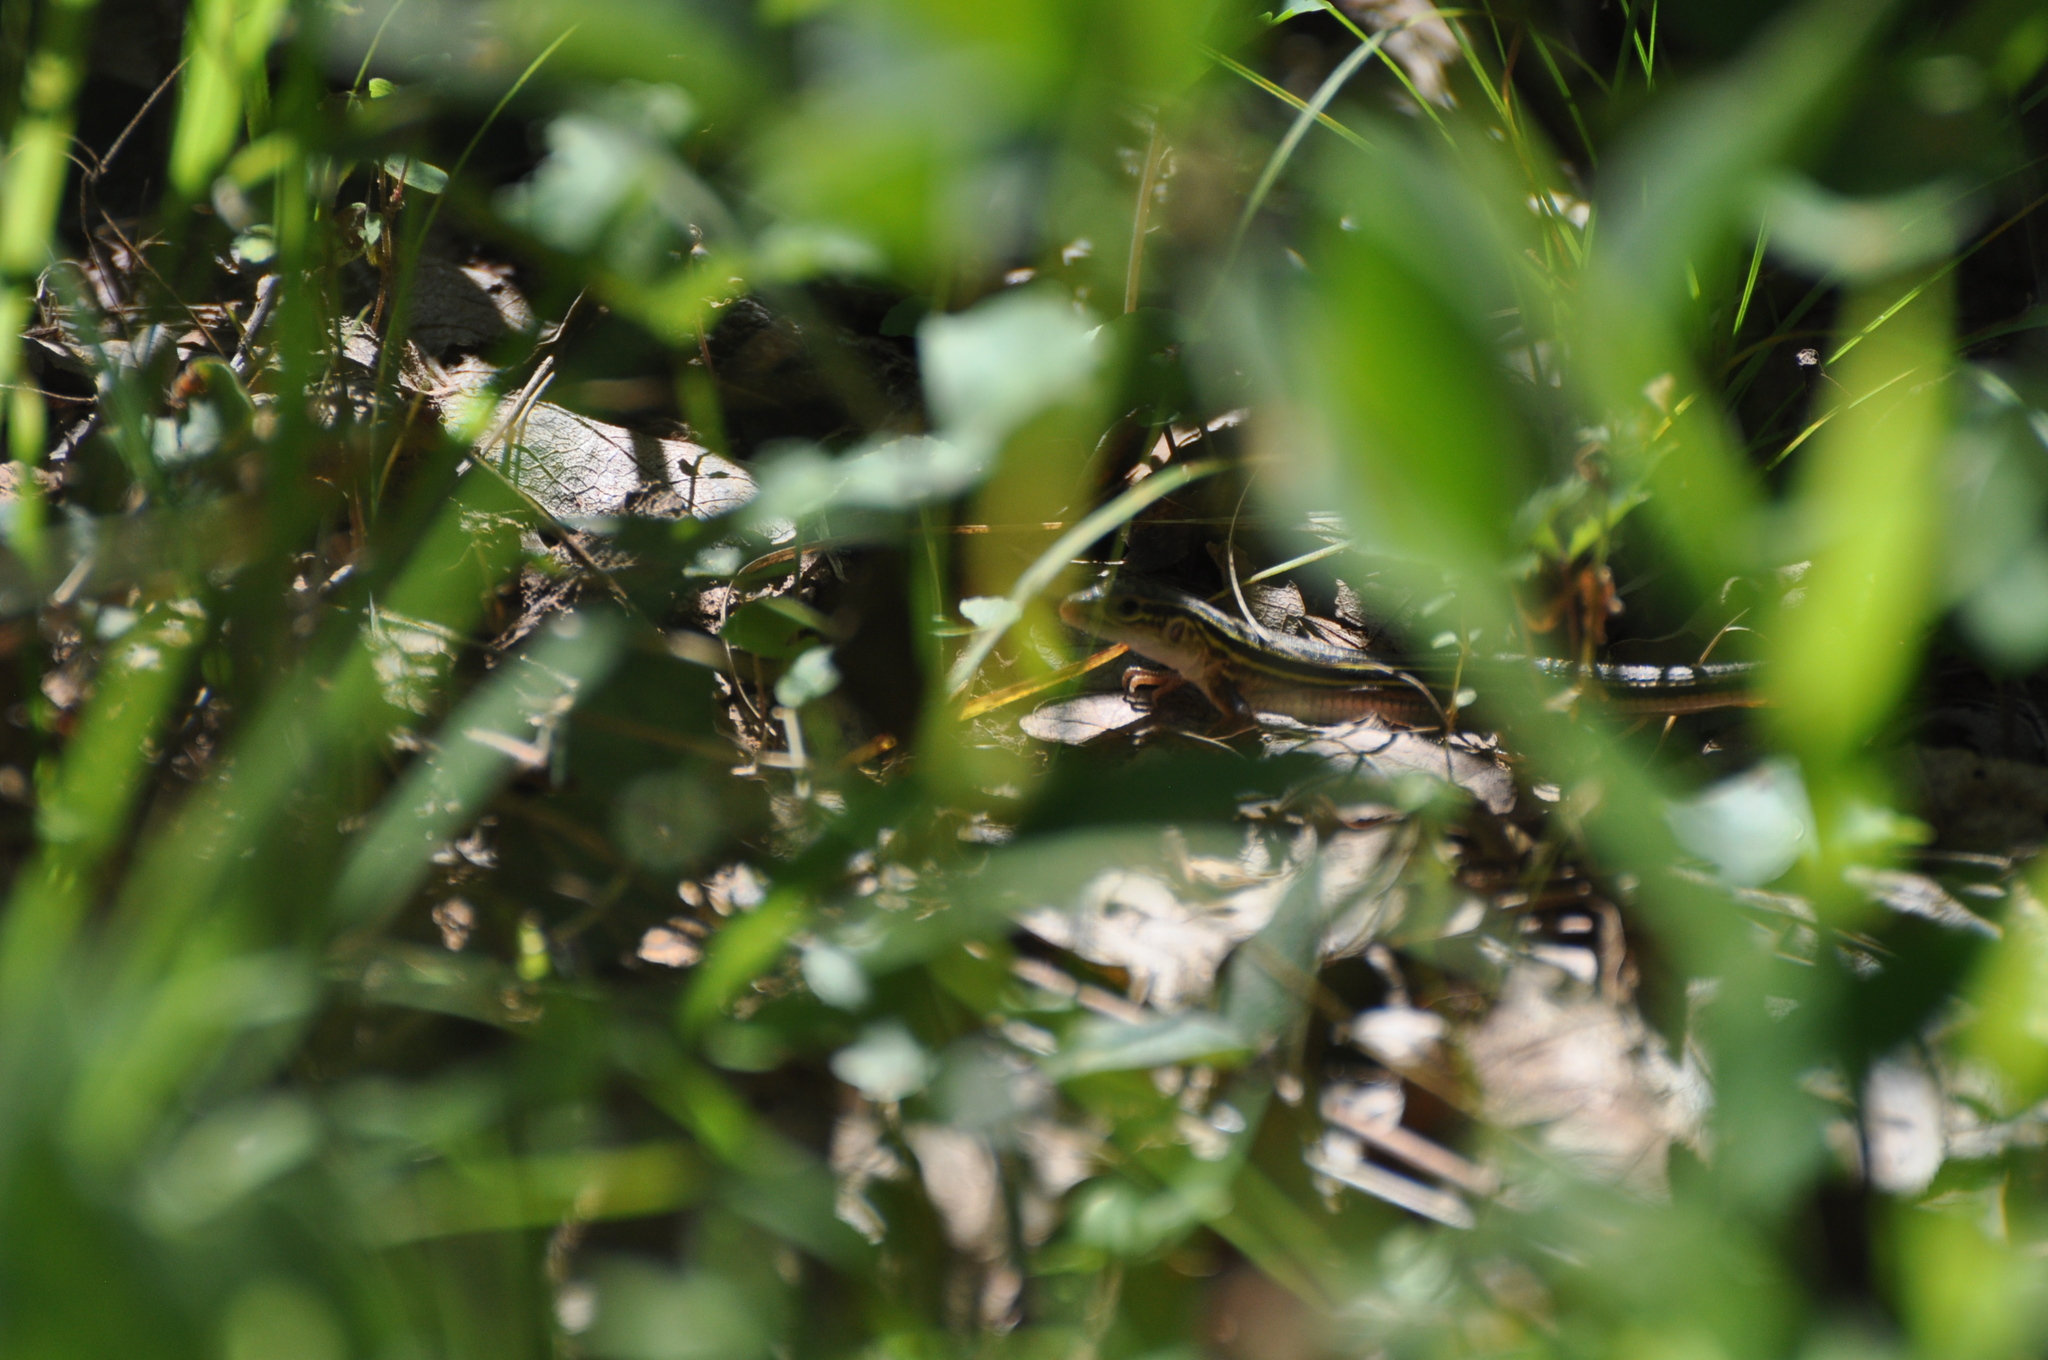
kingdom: Animalia
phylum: Chordata
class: Squamata
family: Teiidae
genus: Aspidoscelis
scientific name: Aspidoscelis sexlineatus
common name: Six-lined racerunner
